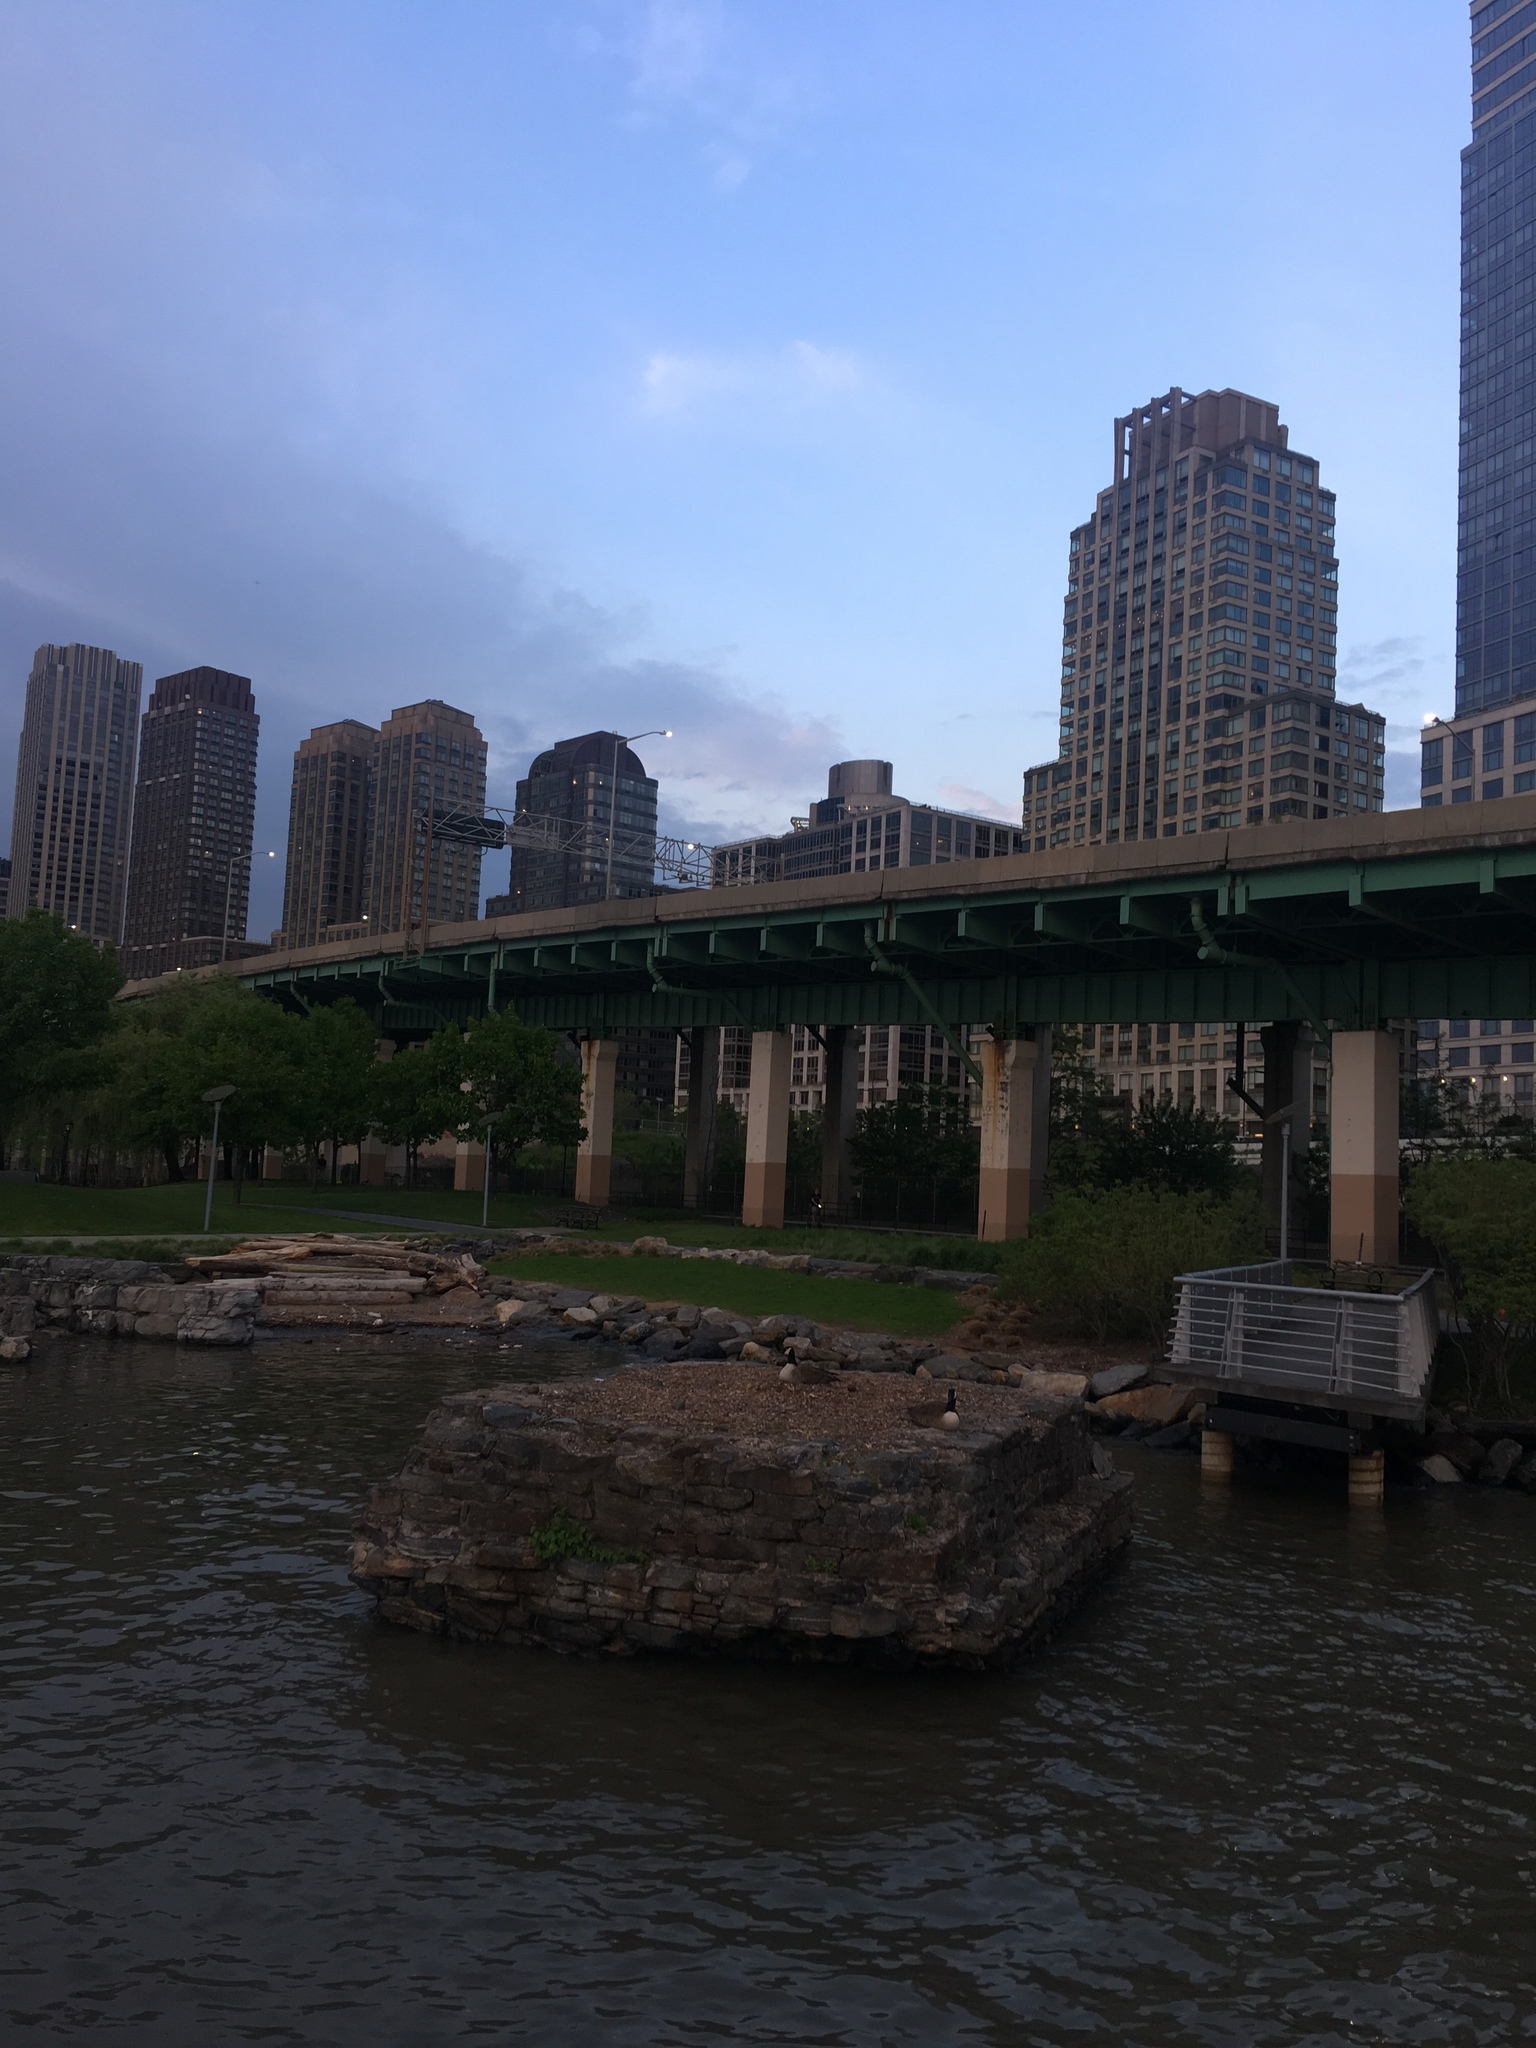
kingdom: Animalia
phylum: Chordata
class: Aves
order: Anseriformes
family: Anatidae
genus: Branta
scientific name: Branta canadensis
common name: Canada goose
